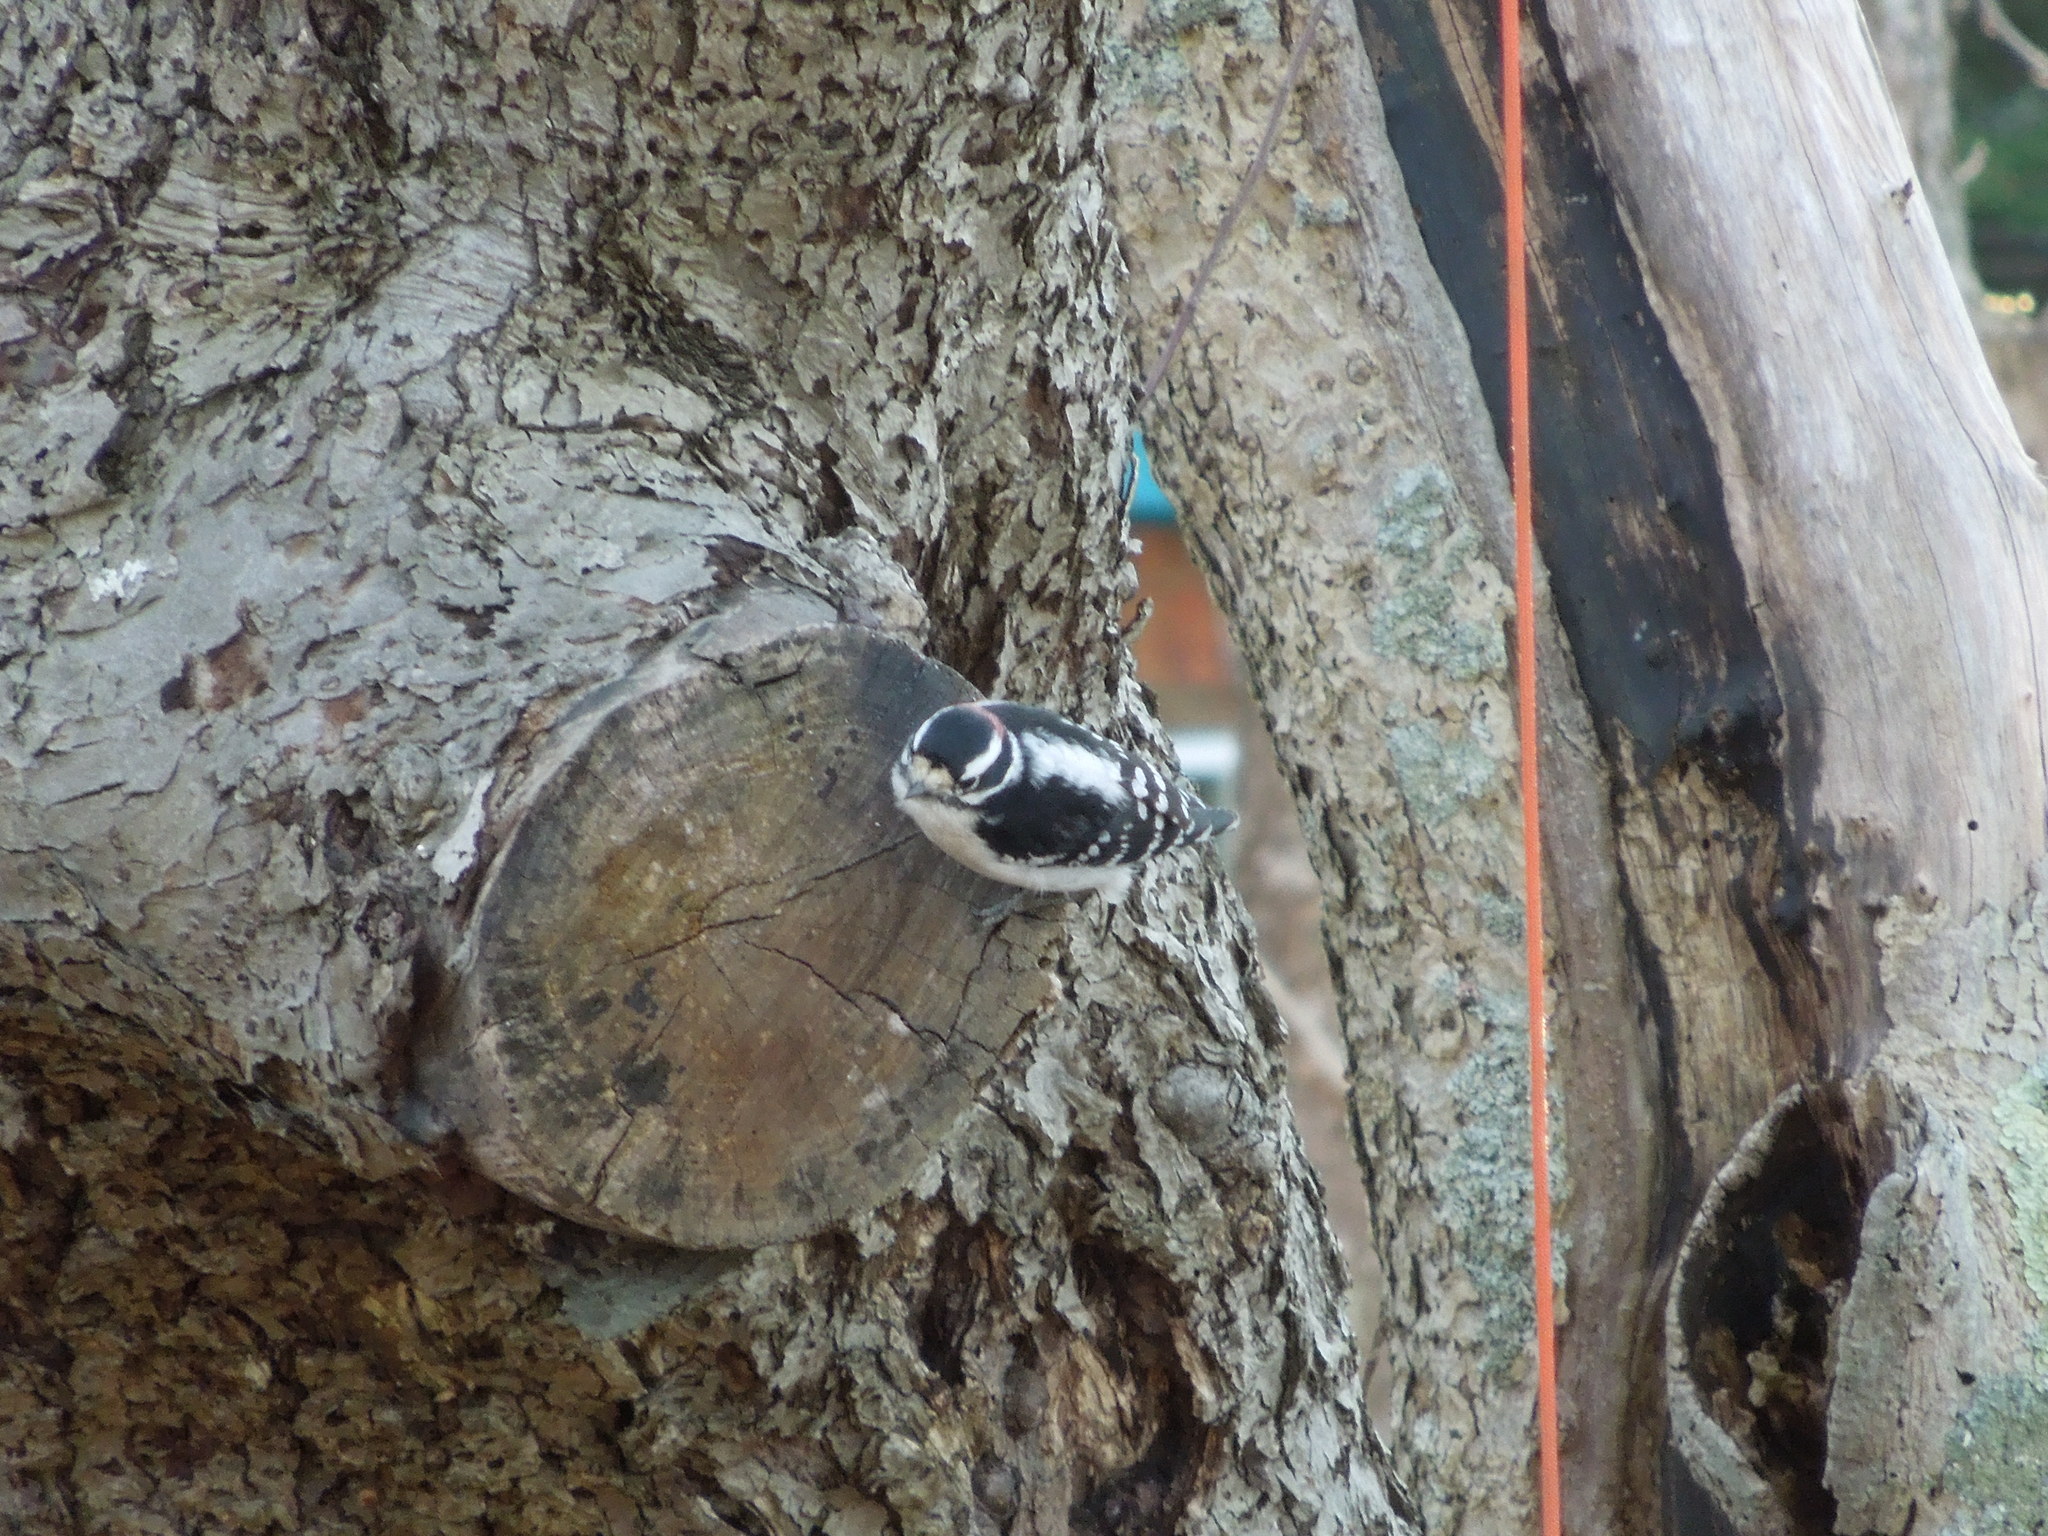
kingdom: Animalia
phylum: Chordata
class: Aves
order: Piciformes
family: Picidae
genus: Dryobates
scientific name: Dryobates pubescens
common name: Downy woodpecker
